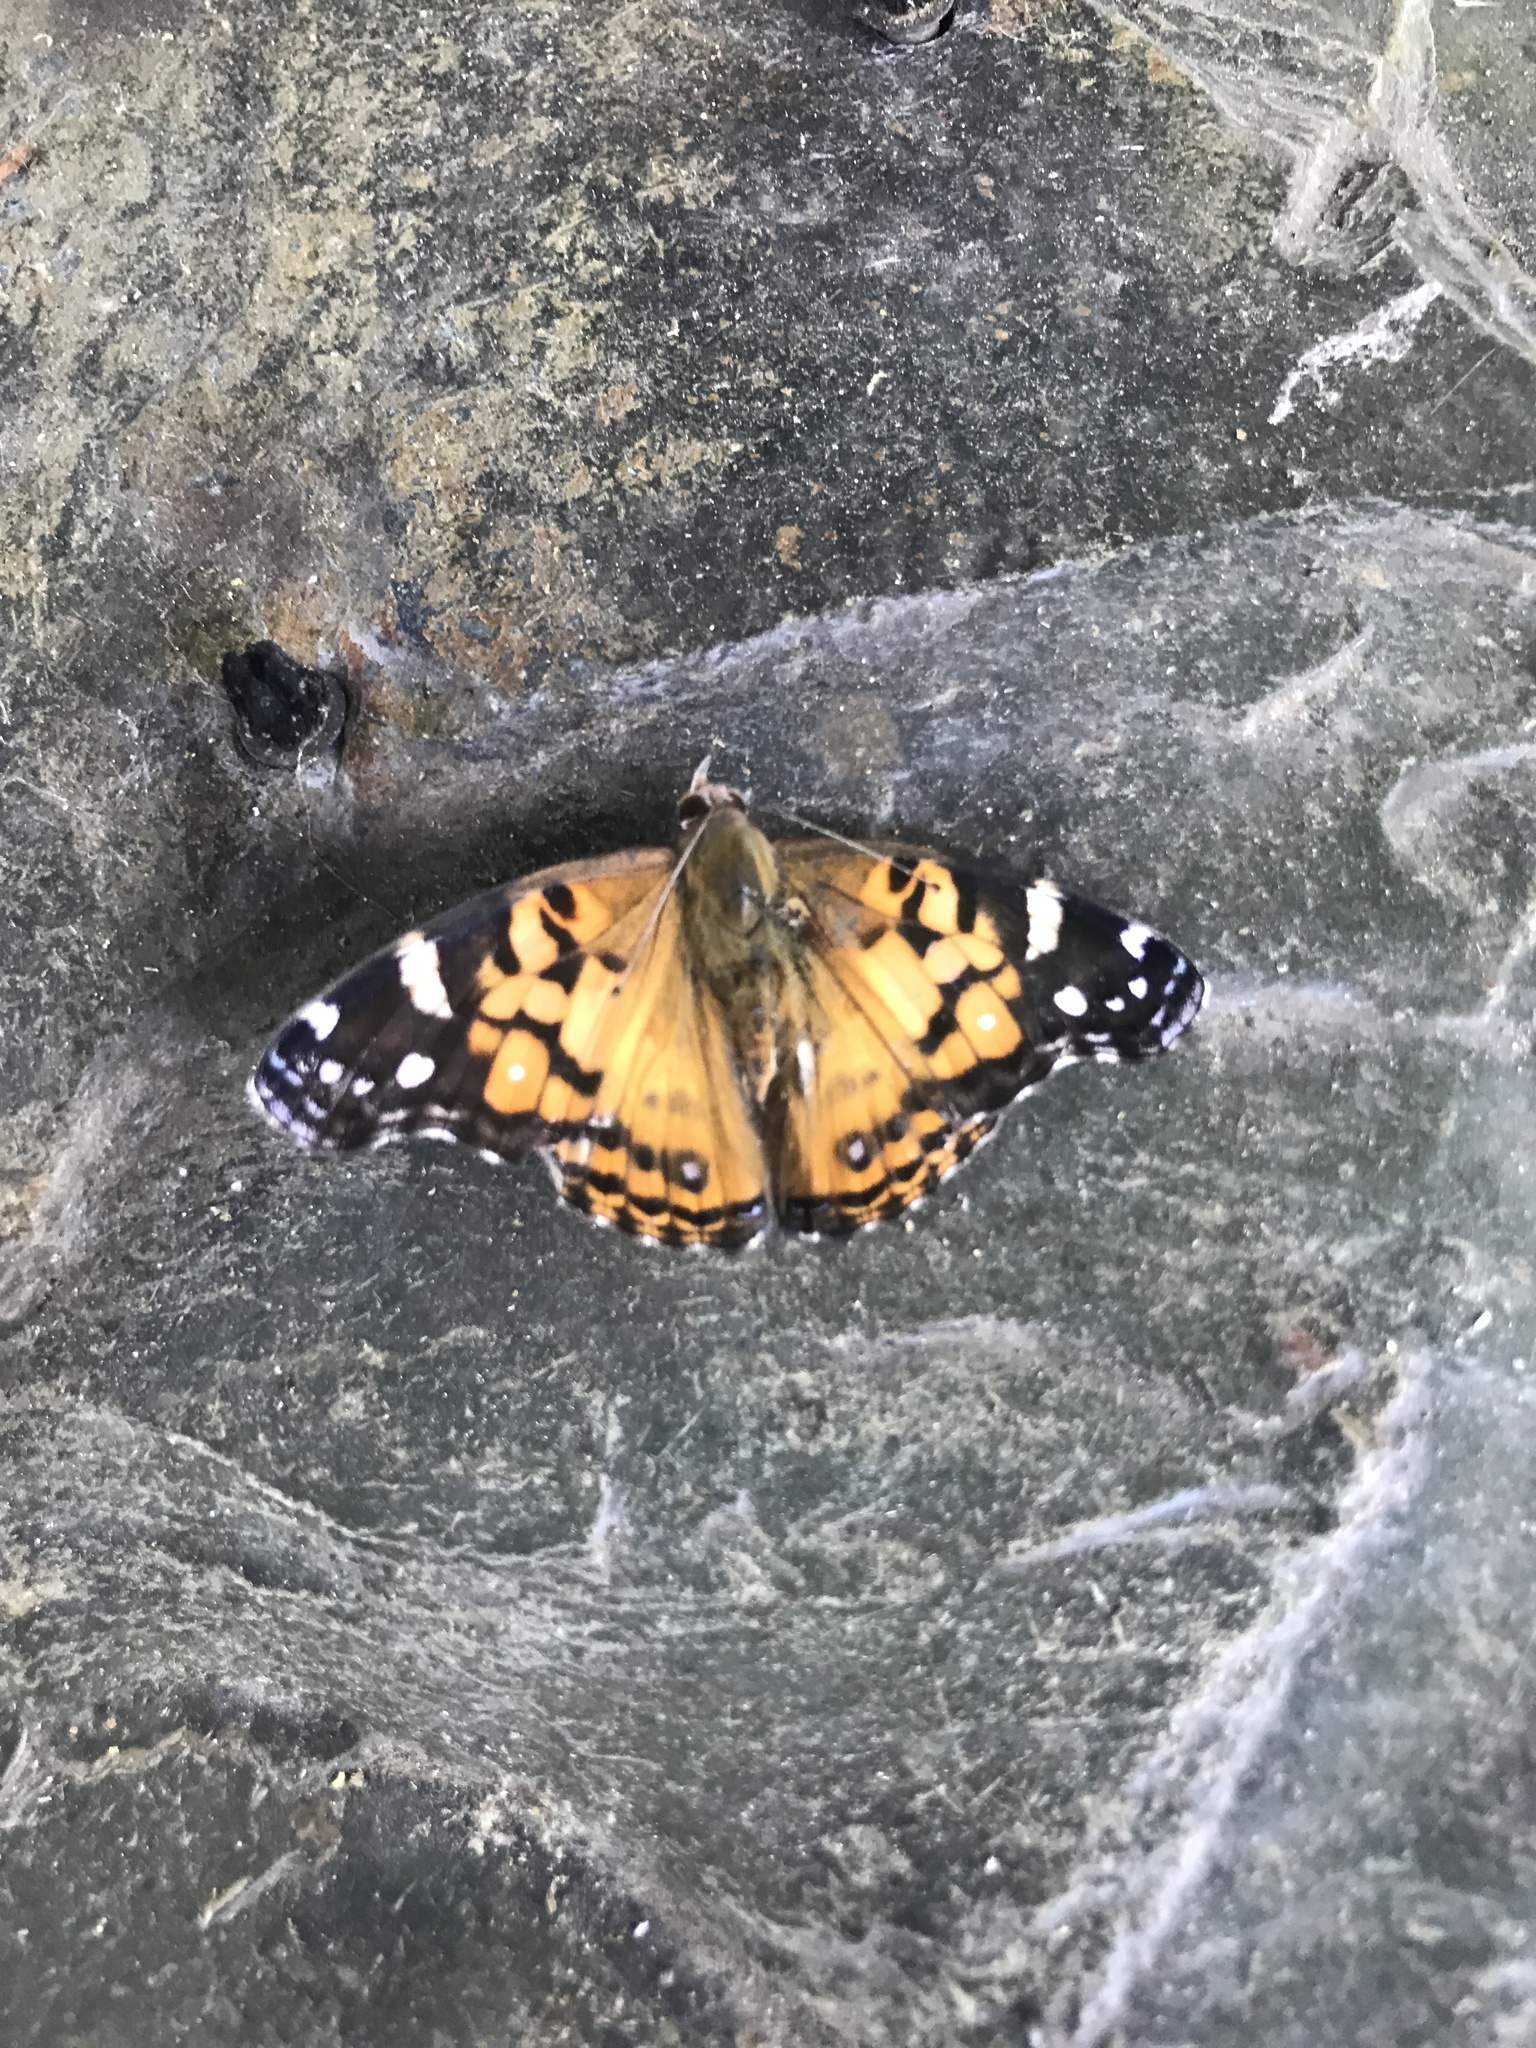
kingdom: Animalia
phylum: Arthropoda
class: Insecta
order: Lepidoptera
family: Nymphalidae
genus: Vanessa
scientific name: Vanessa virginiensis
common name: American lady
